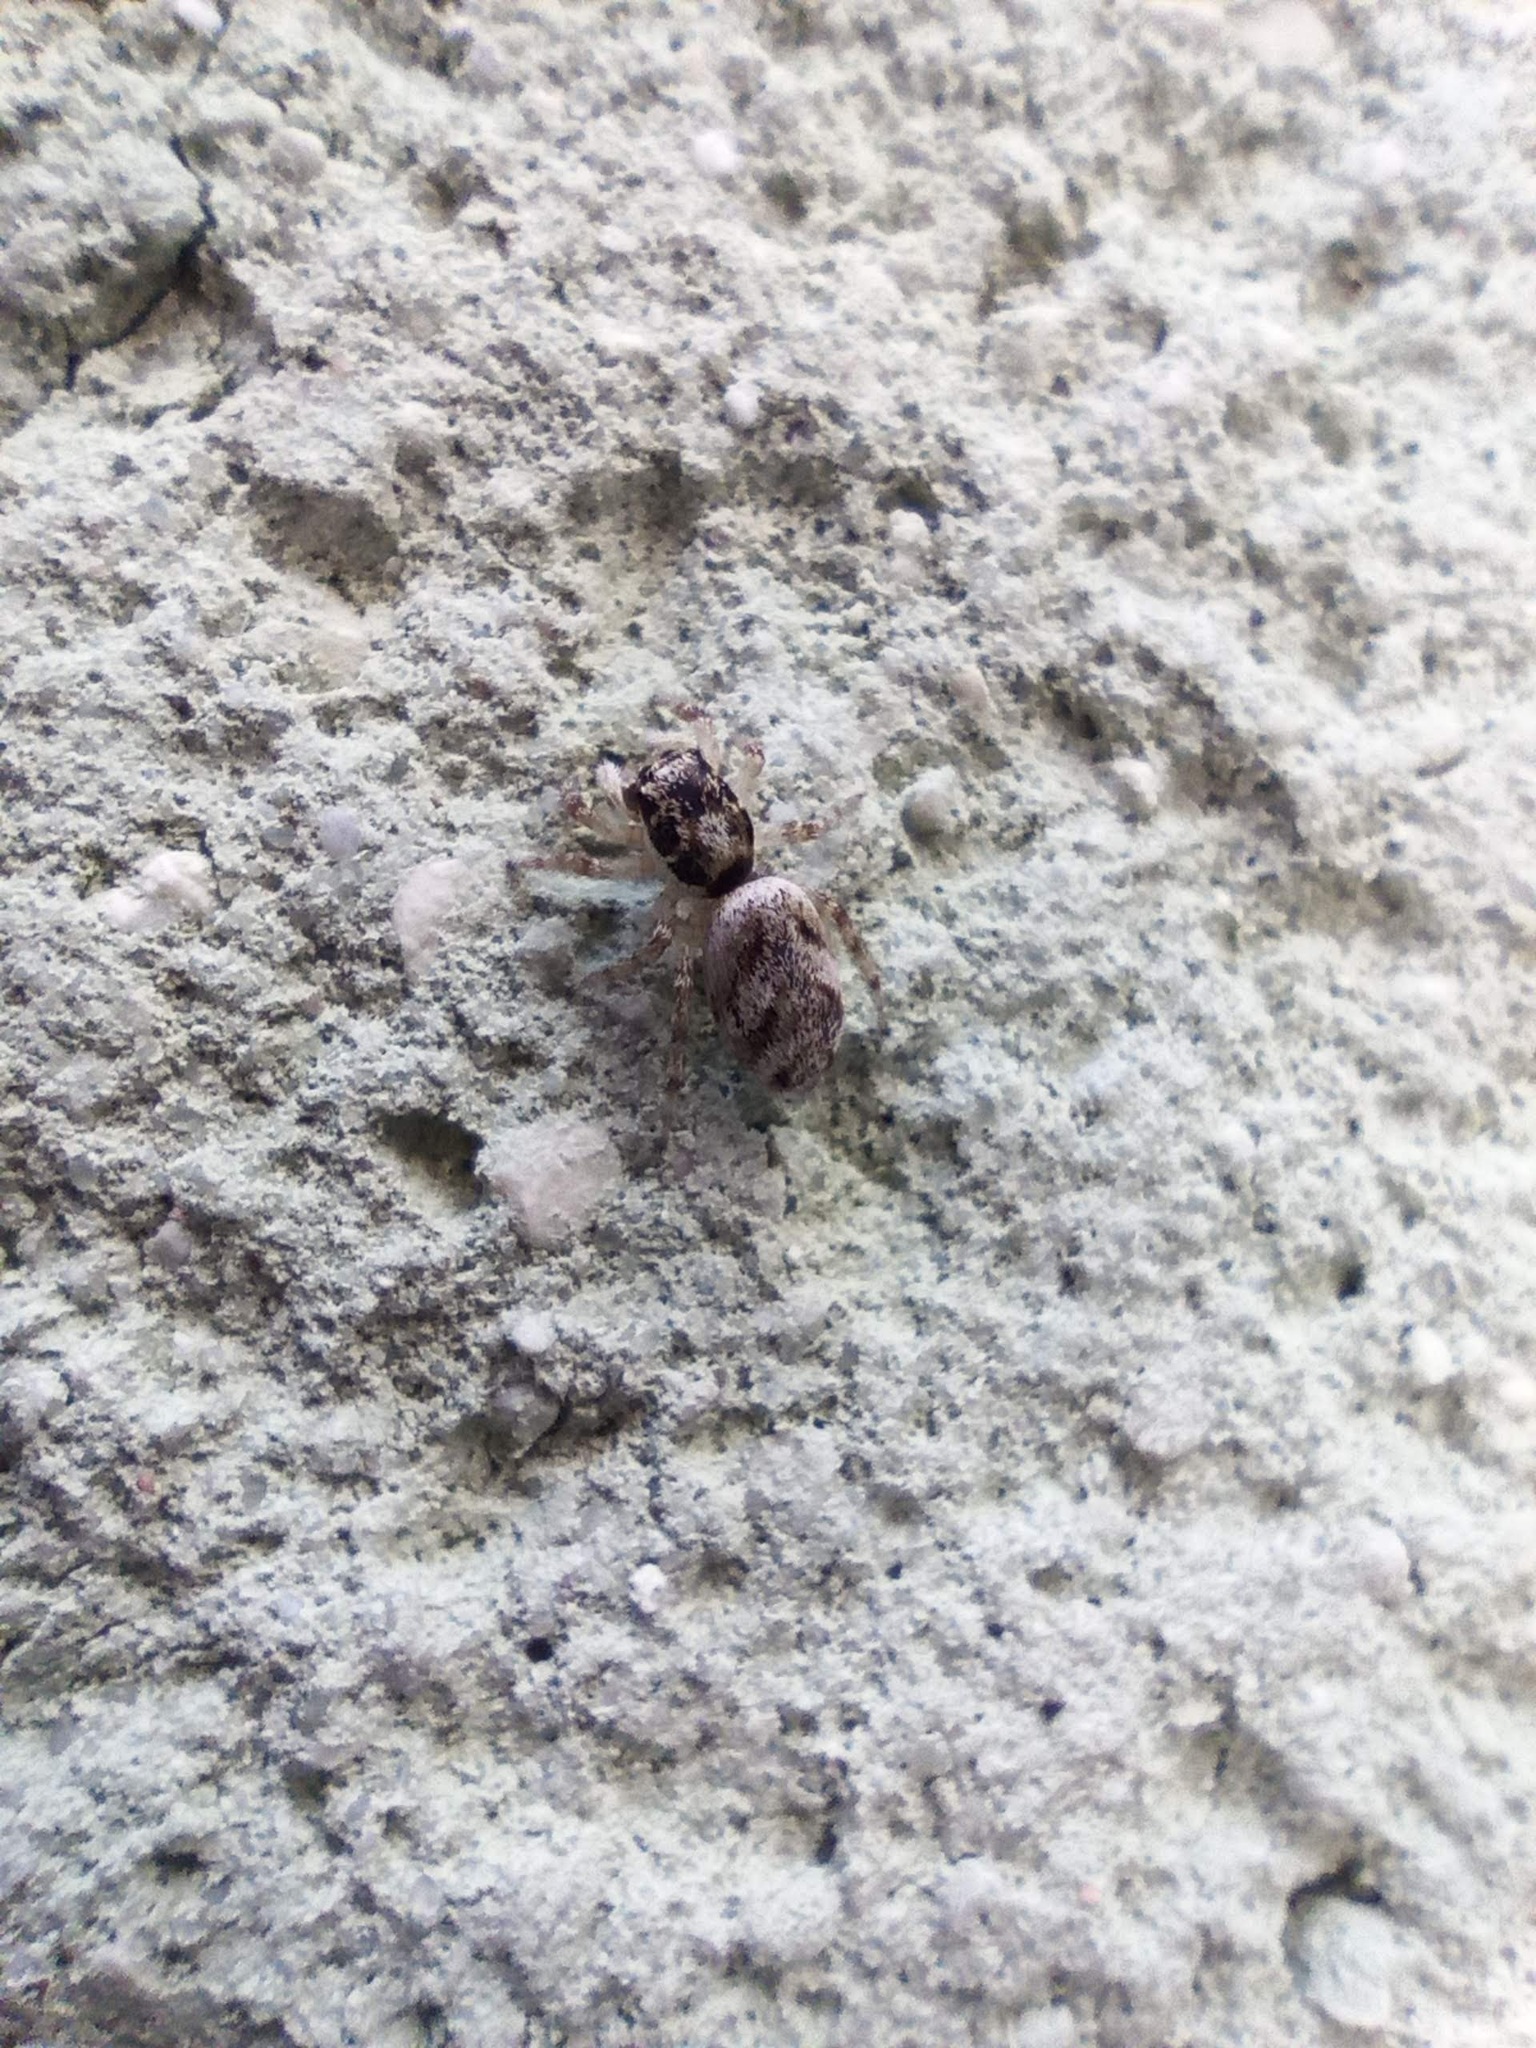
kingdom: Animalia
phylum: Arthropoda
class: Arachnida
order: Araneae
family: Salticidae
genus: Salticus
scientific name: Salticus scenicus
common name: Zebra jumper
